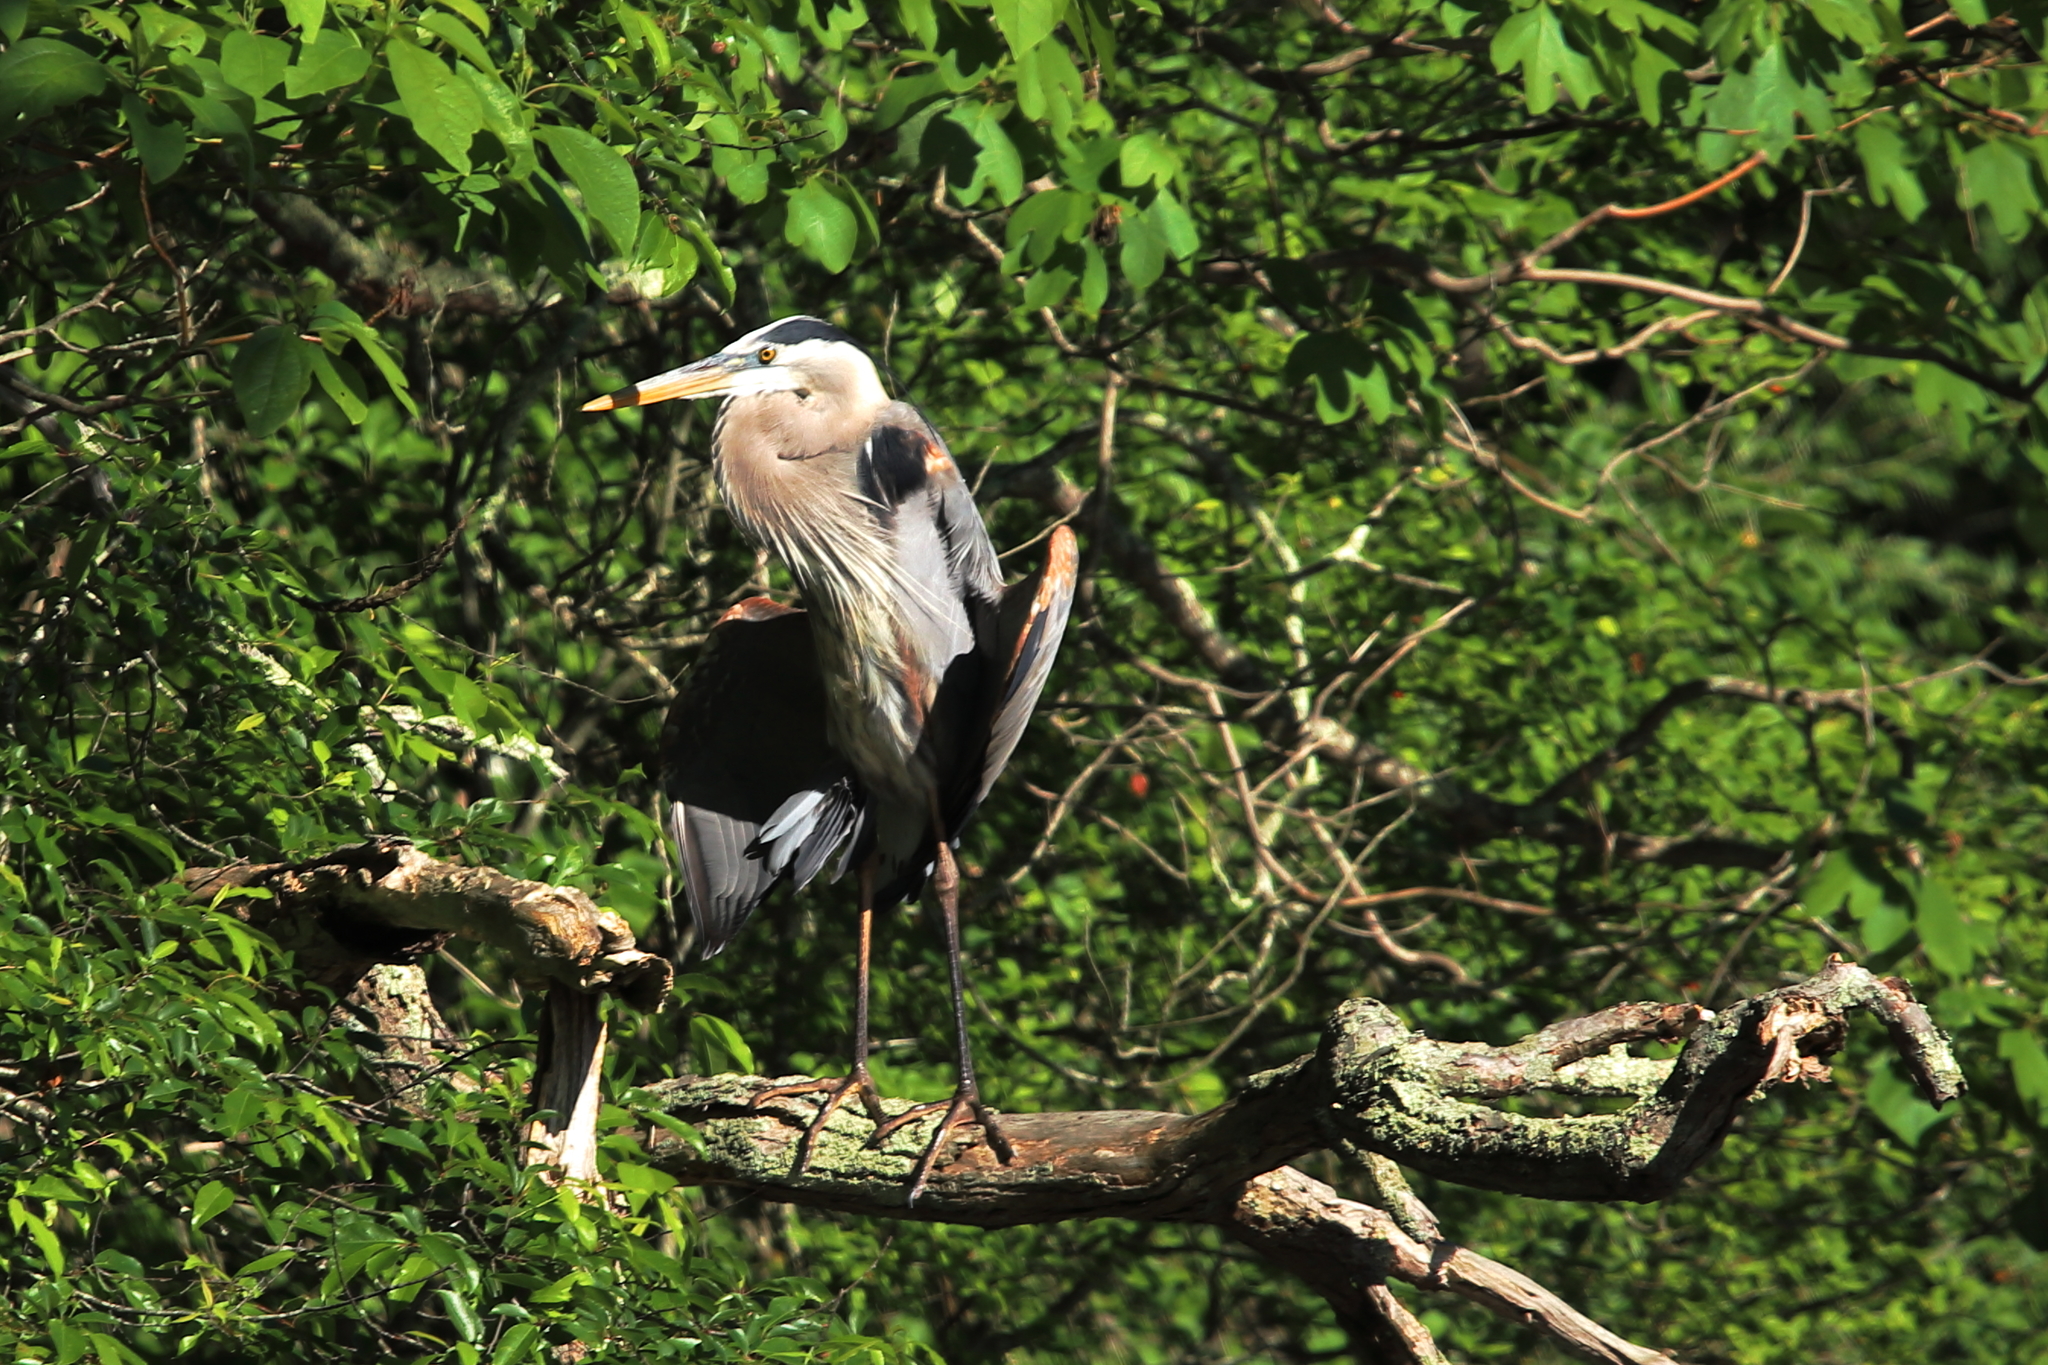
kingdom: Animalia
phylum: Chordata
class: Aves
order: Pelecaniformes
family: Ardeidae
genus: Ardea
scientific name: Ardea herodias
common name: Great blue heron
